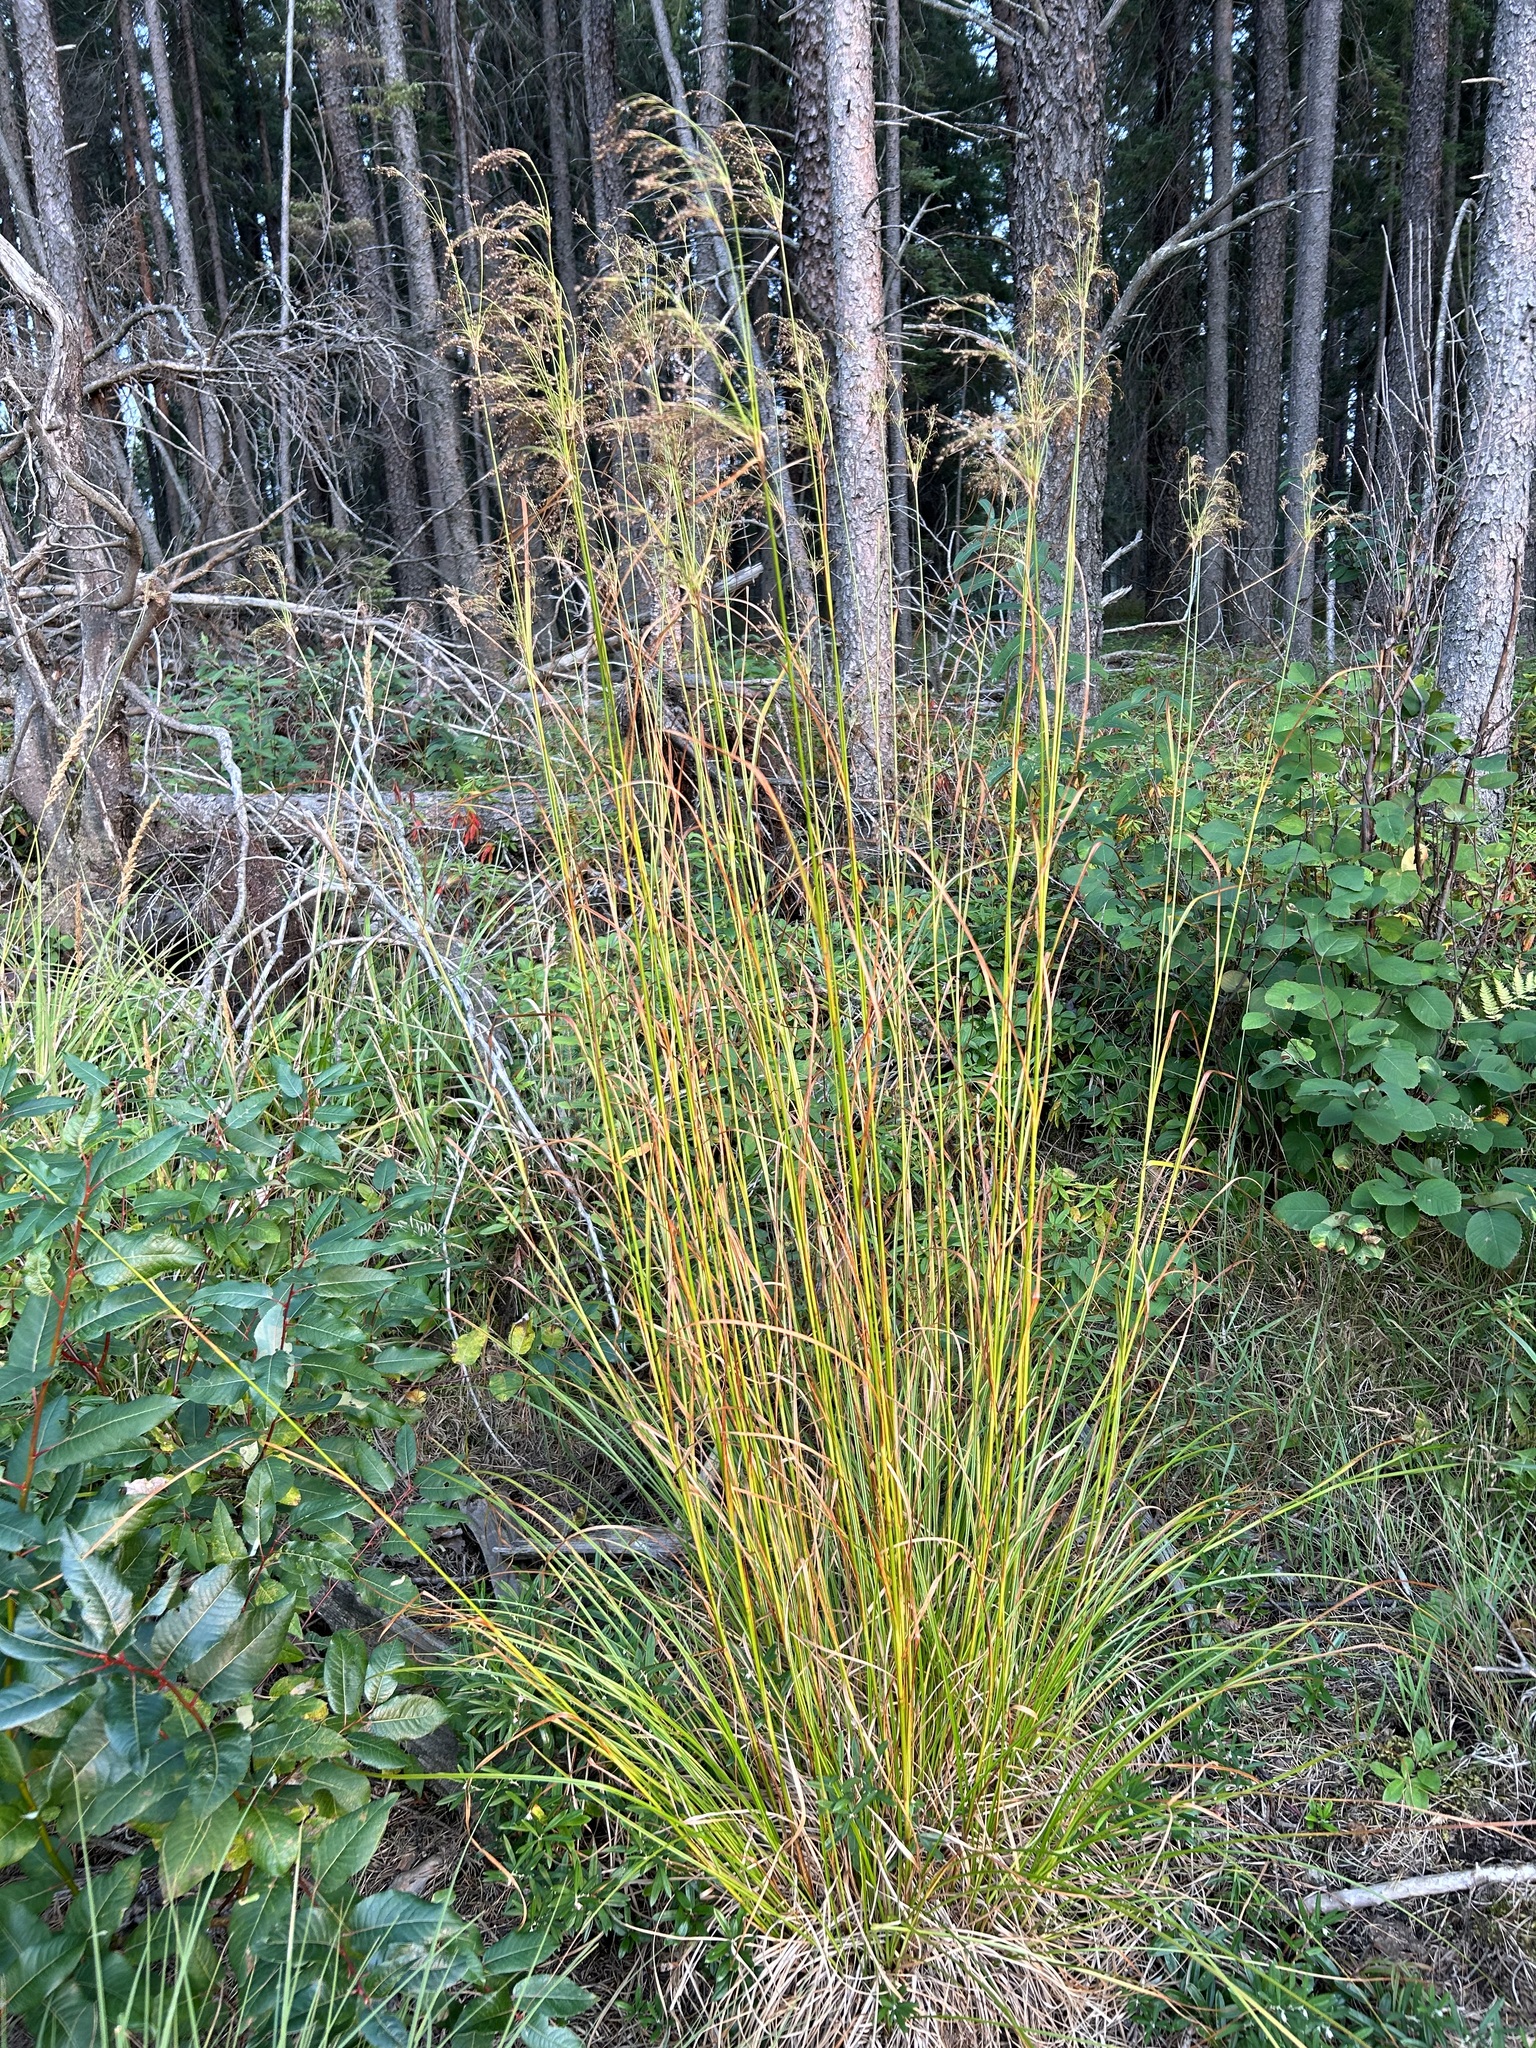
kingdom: Plantae
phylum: Tracheophyta
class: Liliopsida
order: Poales
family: Cyperaceae
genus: Scirpus
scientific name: Scirpus pedicellatus
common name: Pedicelled bulrush
